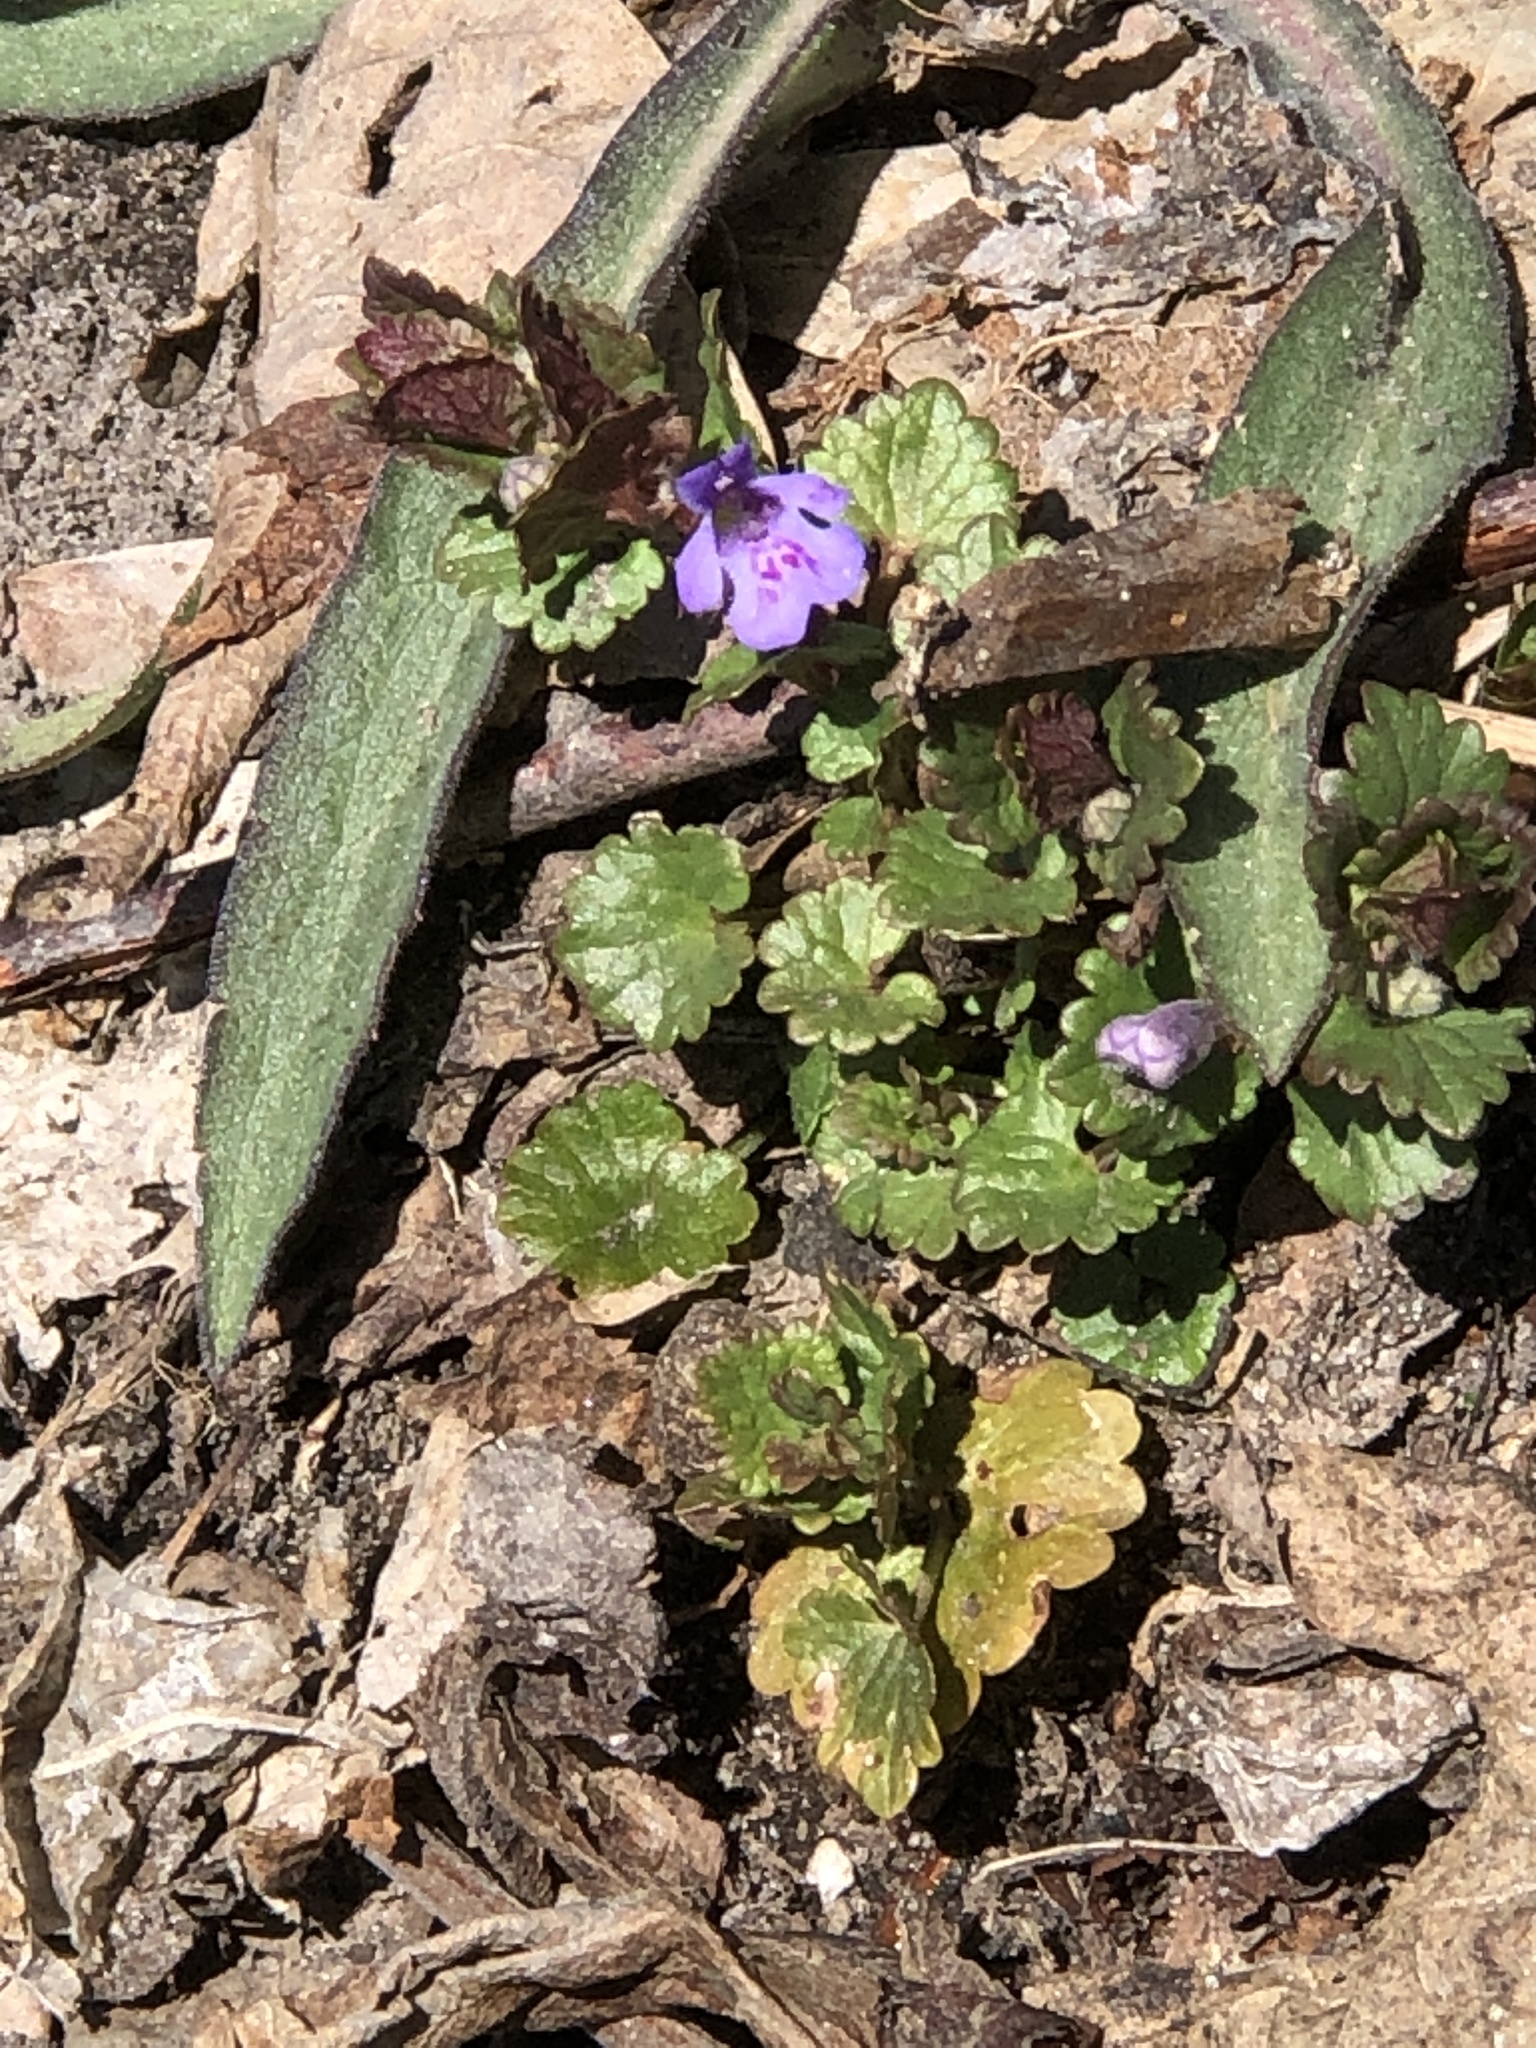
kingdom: Plantae
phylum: Tracheophyta
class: Magnoliopsida
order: Lamiales
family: Lamiaceae
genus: Glechoma
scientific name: Glechoma hederacea
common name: Ground ivy
